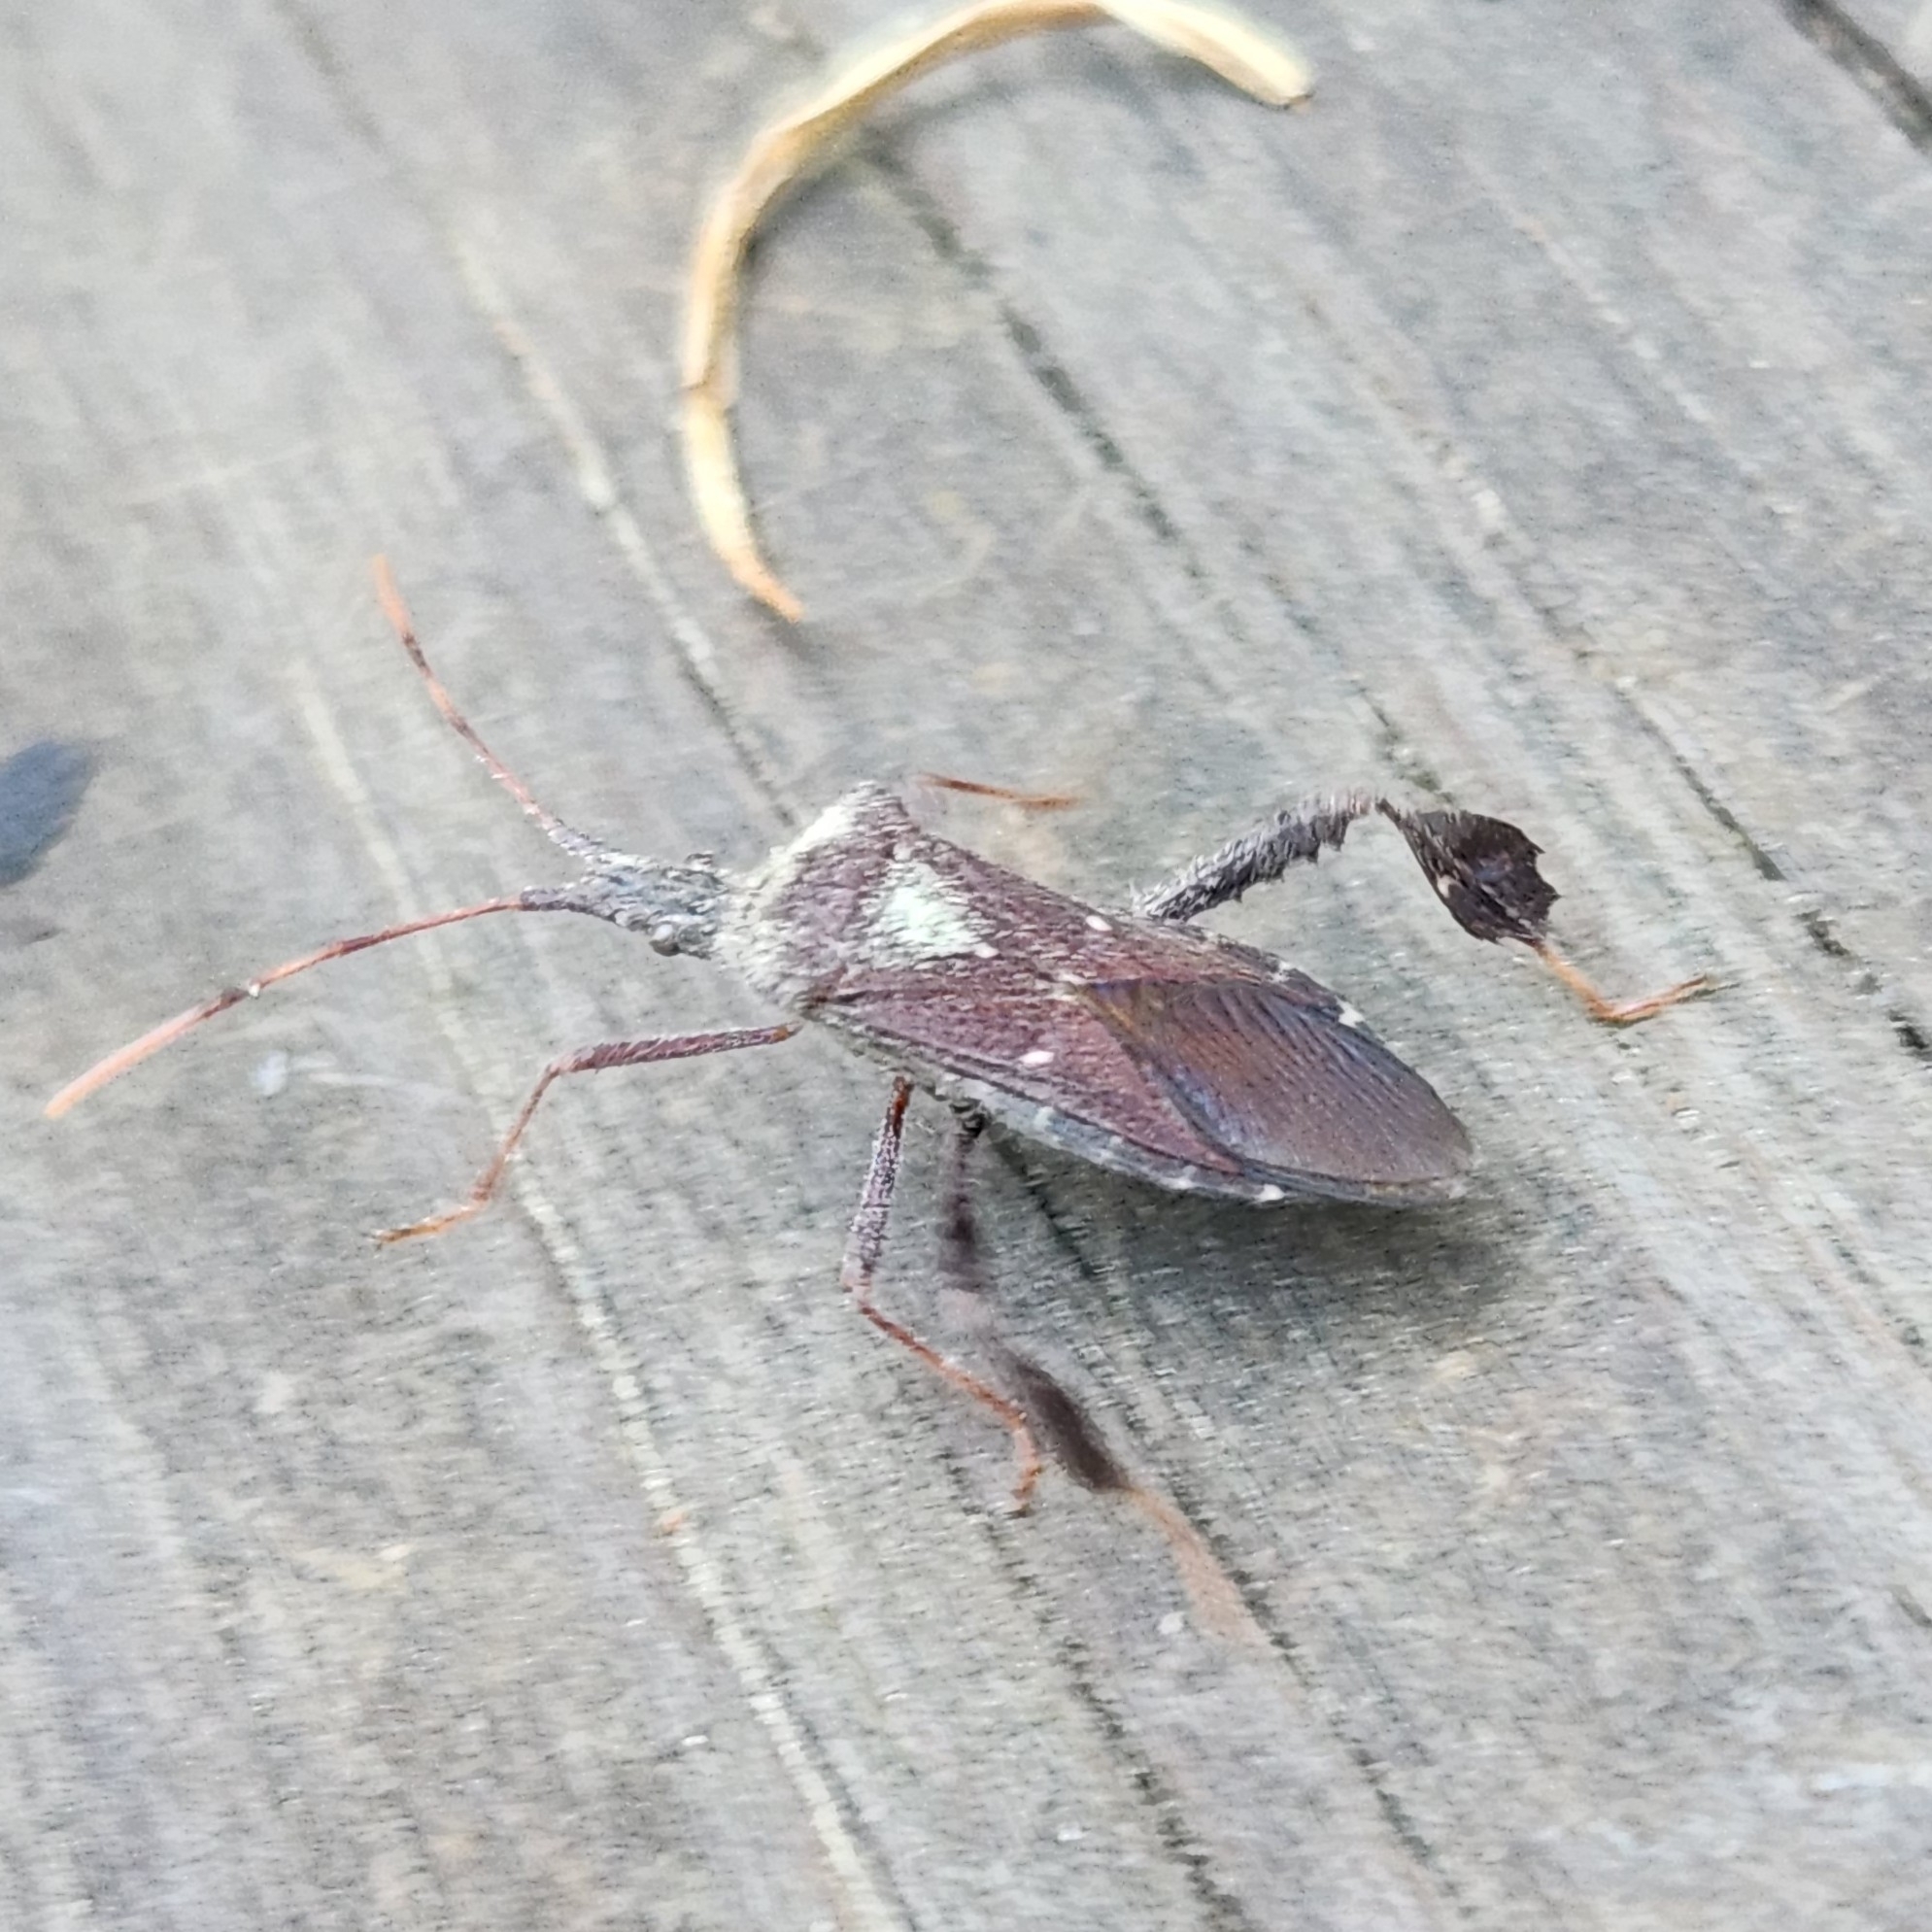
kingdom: Animalia
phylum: Arthropoda
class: Insecta
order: Hemiptera
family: Coreidae
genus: Leptoglossus
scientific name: Leptoglossus oppositus
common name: Northern leaf-footed bug
